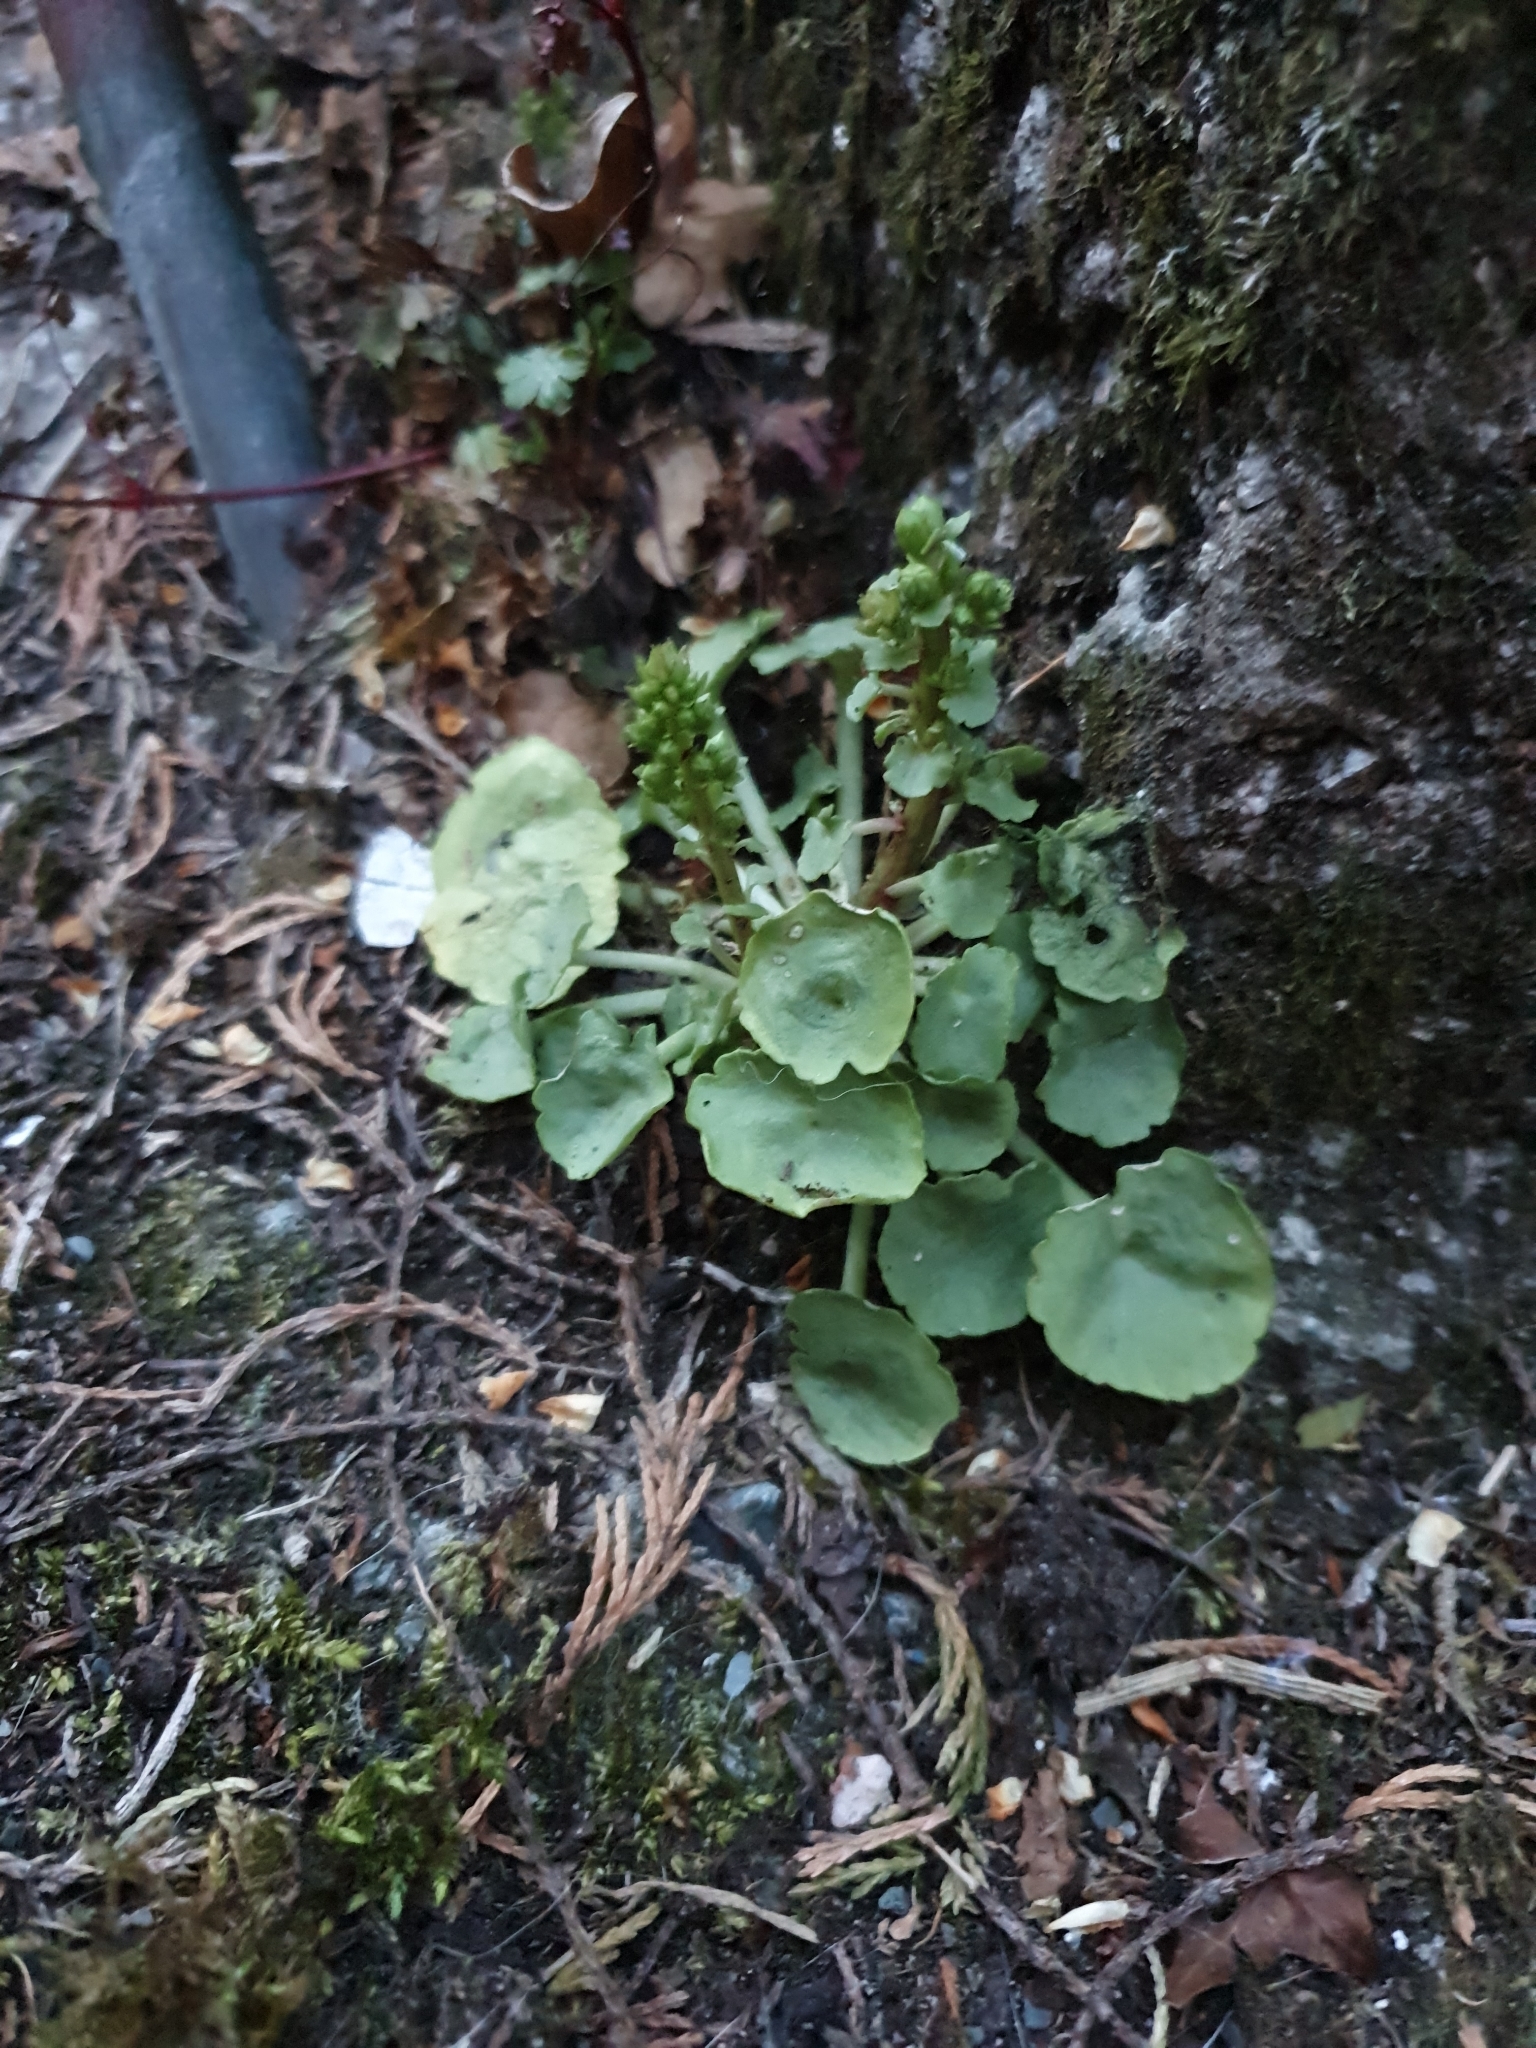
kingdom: Plantae
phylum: Tracheophyta
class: Magnoliopsida
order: Saxifragales
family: Crassulaceae
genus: Umbilicus
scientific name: Umbilicus rupestris
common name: Navelwort
